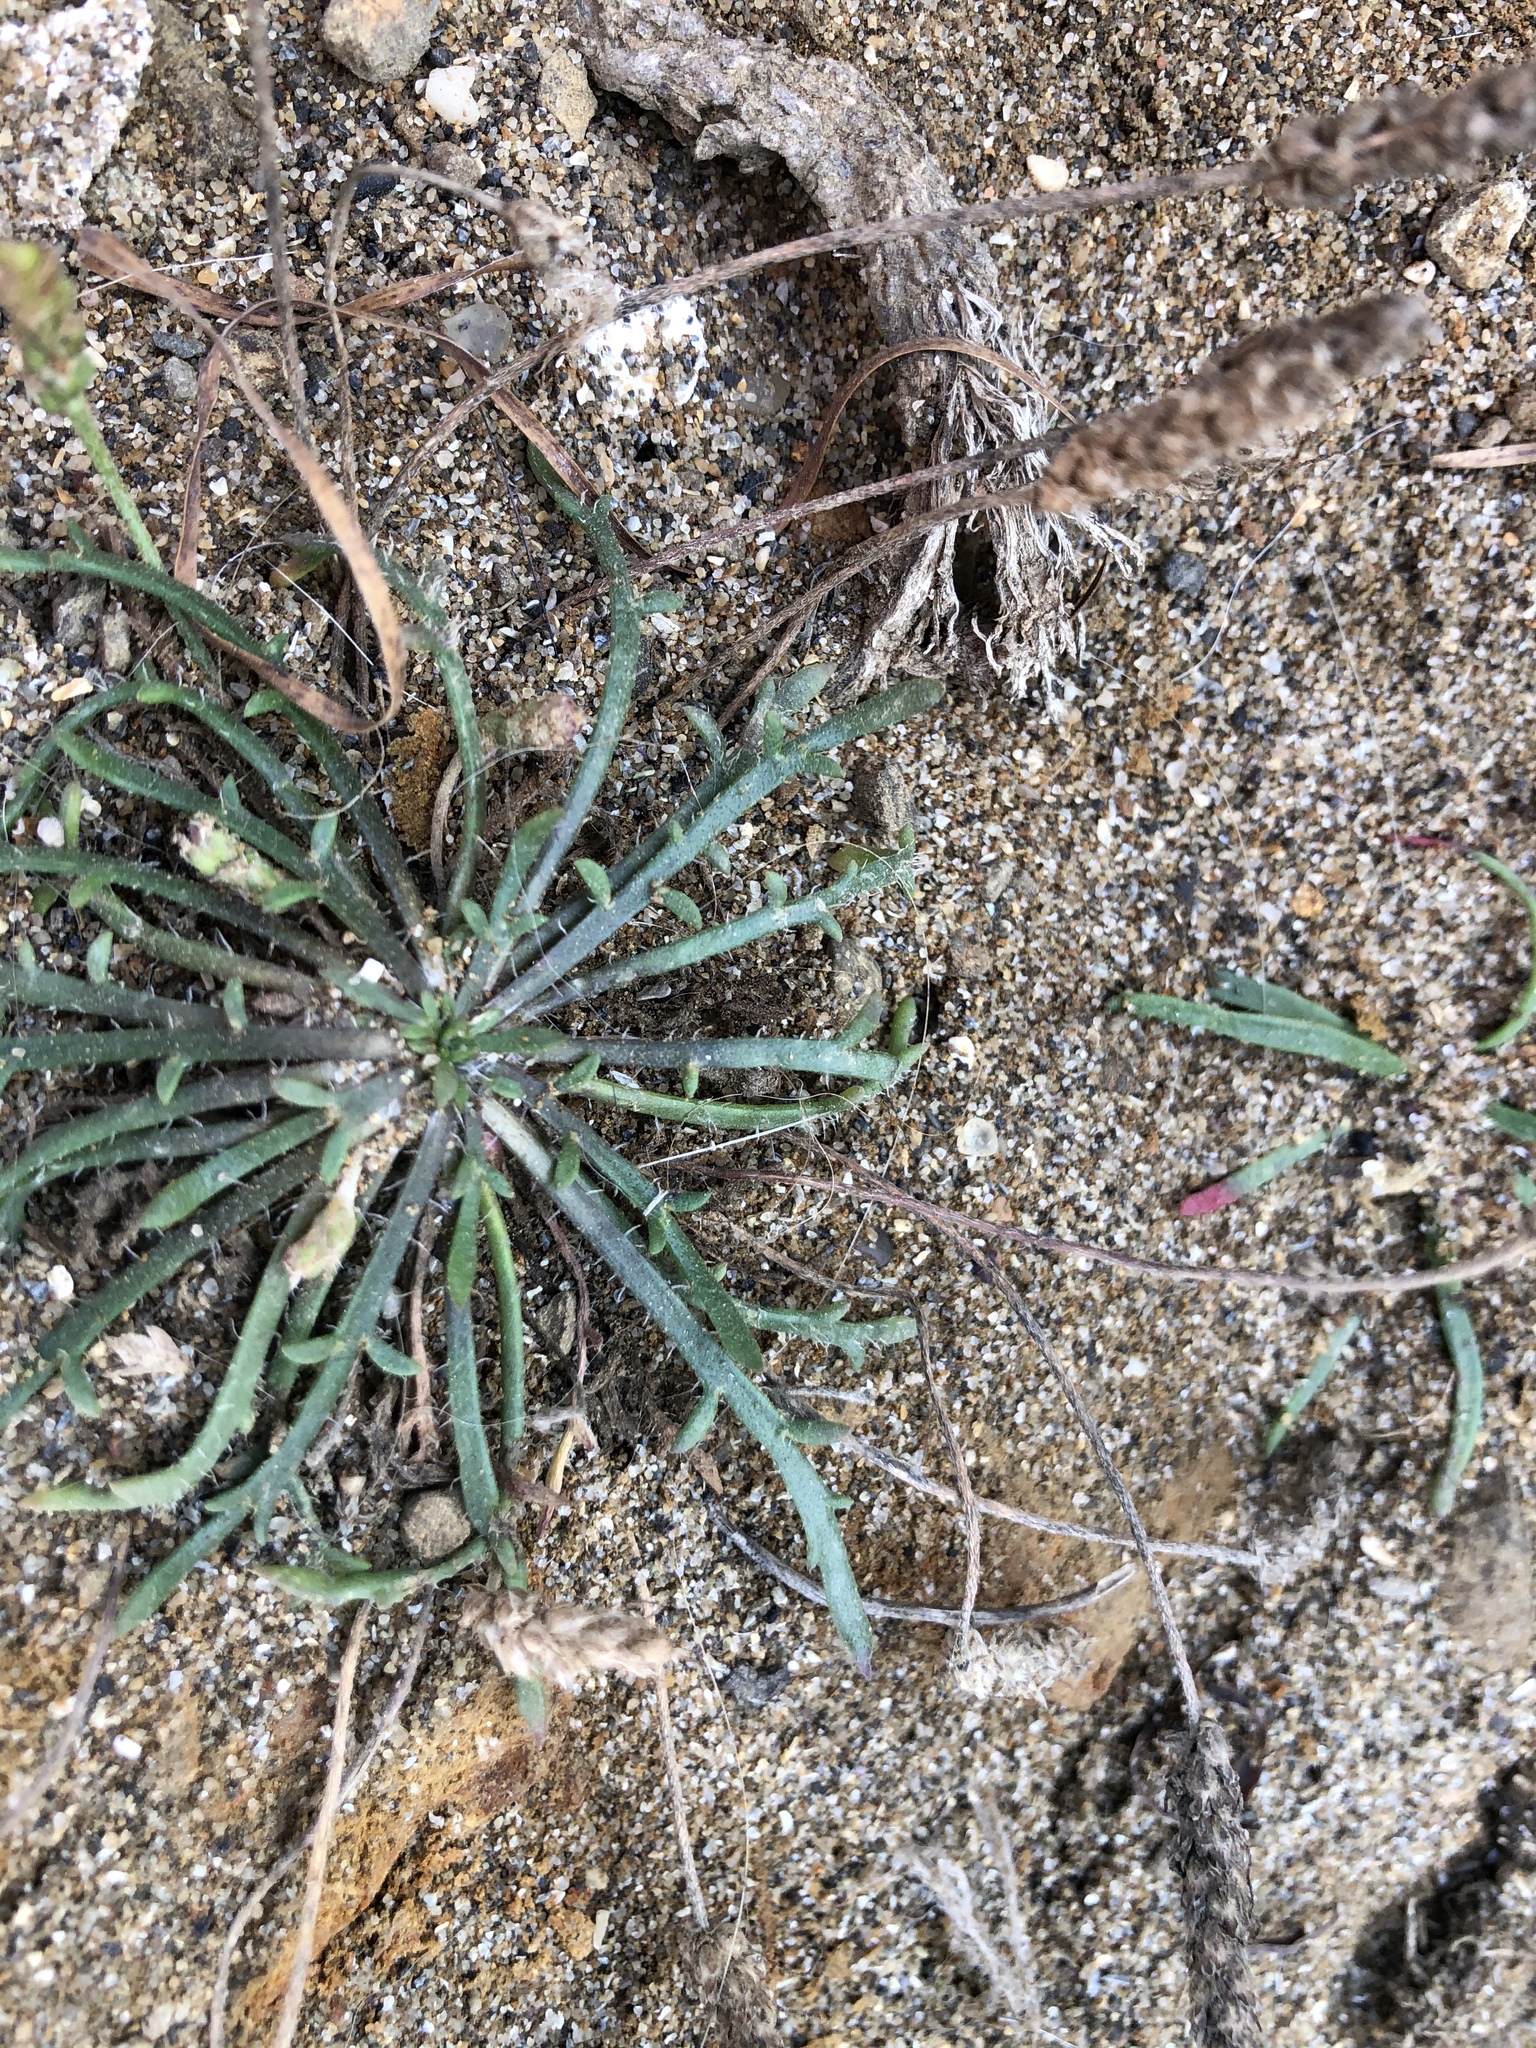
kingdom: Plantae
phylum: Tracheophyta
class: Magnoliopsida
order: Lamiales
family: Plantaginaceae
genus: Plantago
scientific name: Plantago coronopus
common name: Buck's-horn plantain
